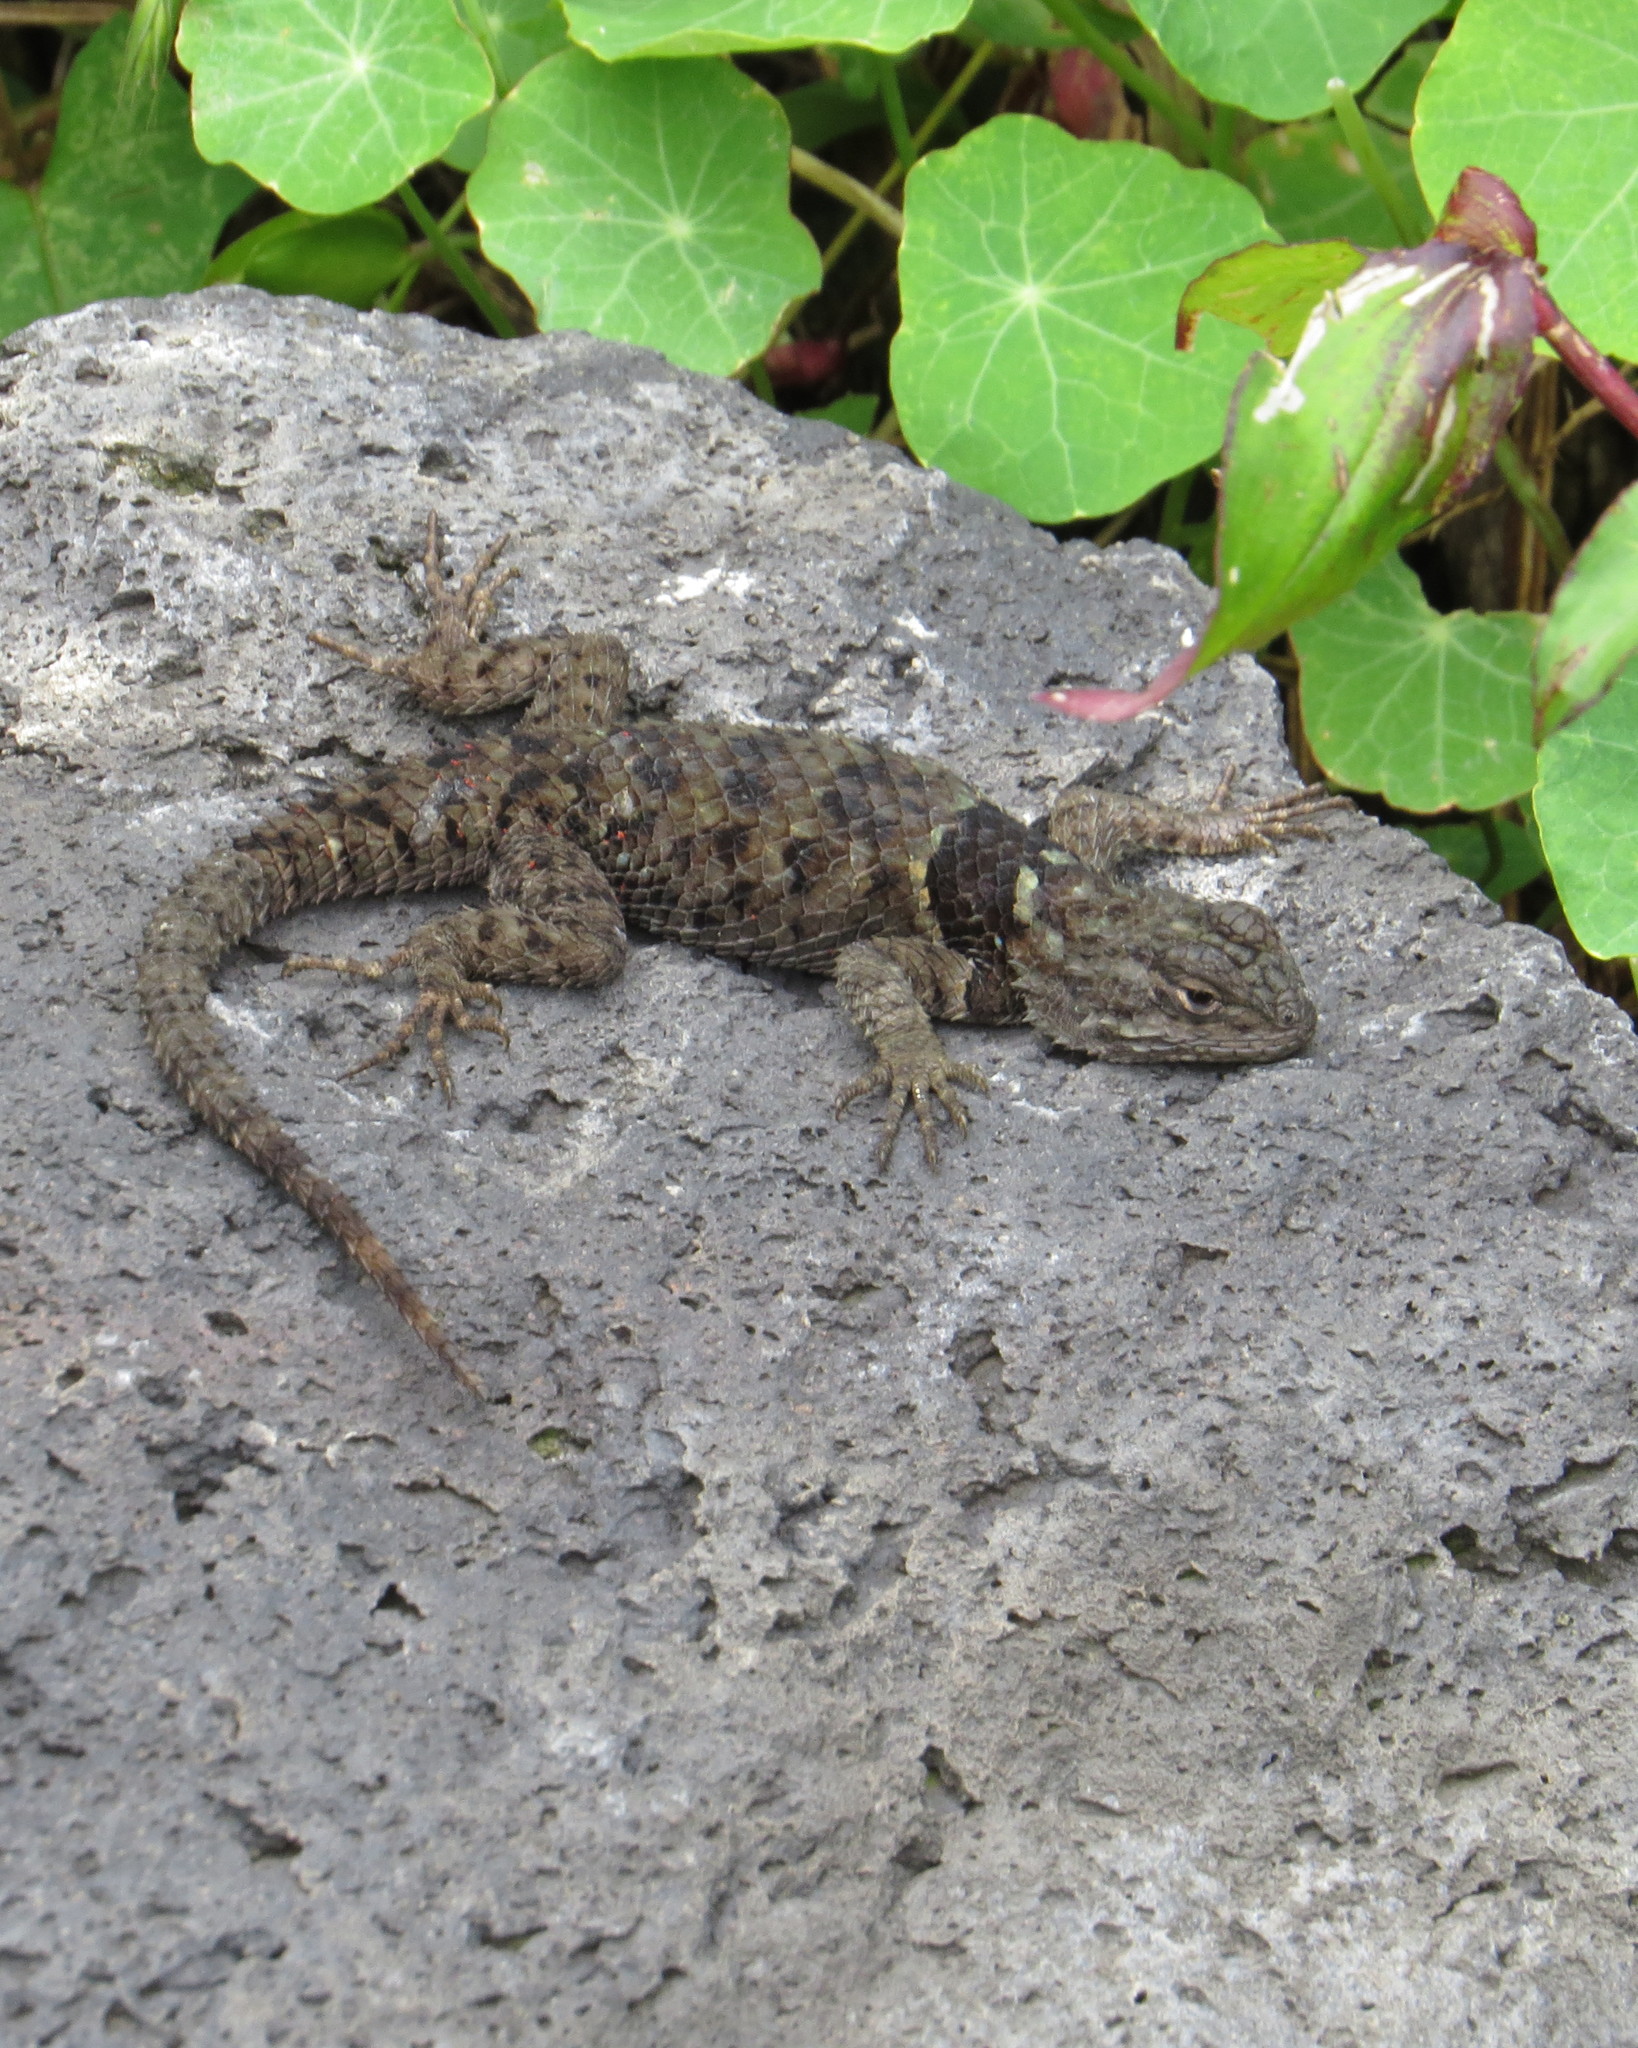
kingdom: Animalia
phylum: Chordata
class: Squamata
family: Phrynosomatidae
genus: Sceloporus
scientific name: Sceloporus torquatus
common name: Central plateau torquate lizard [melanogaster]
